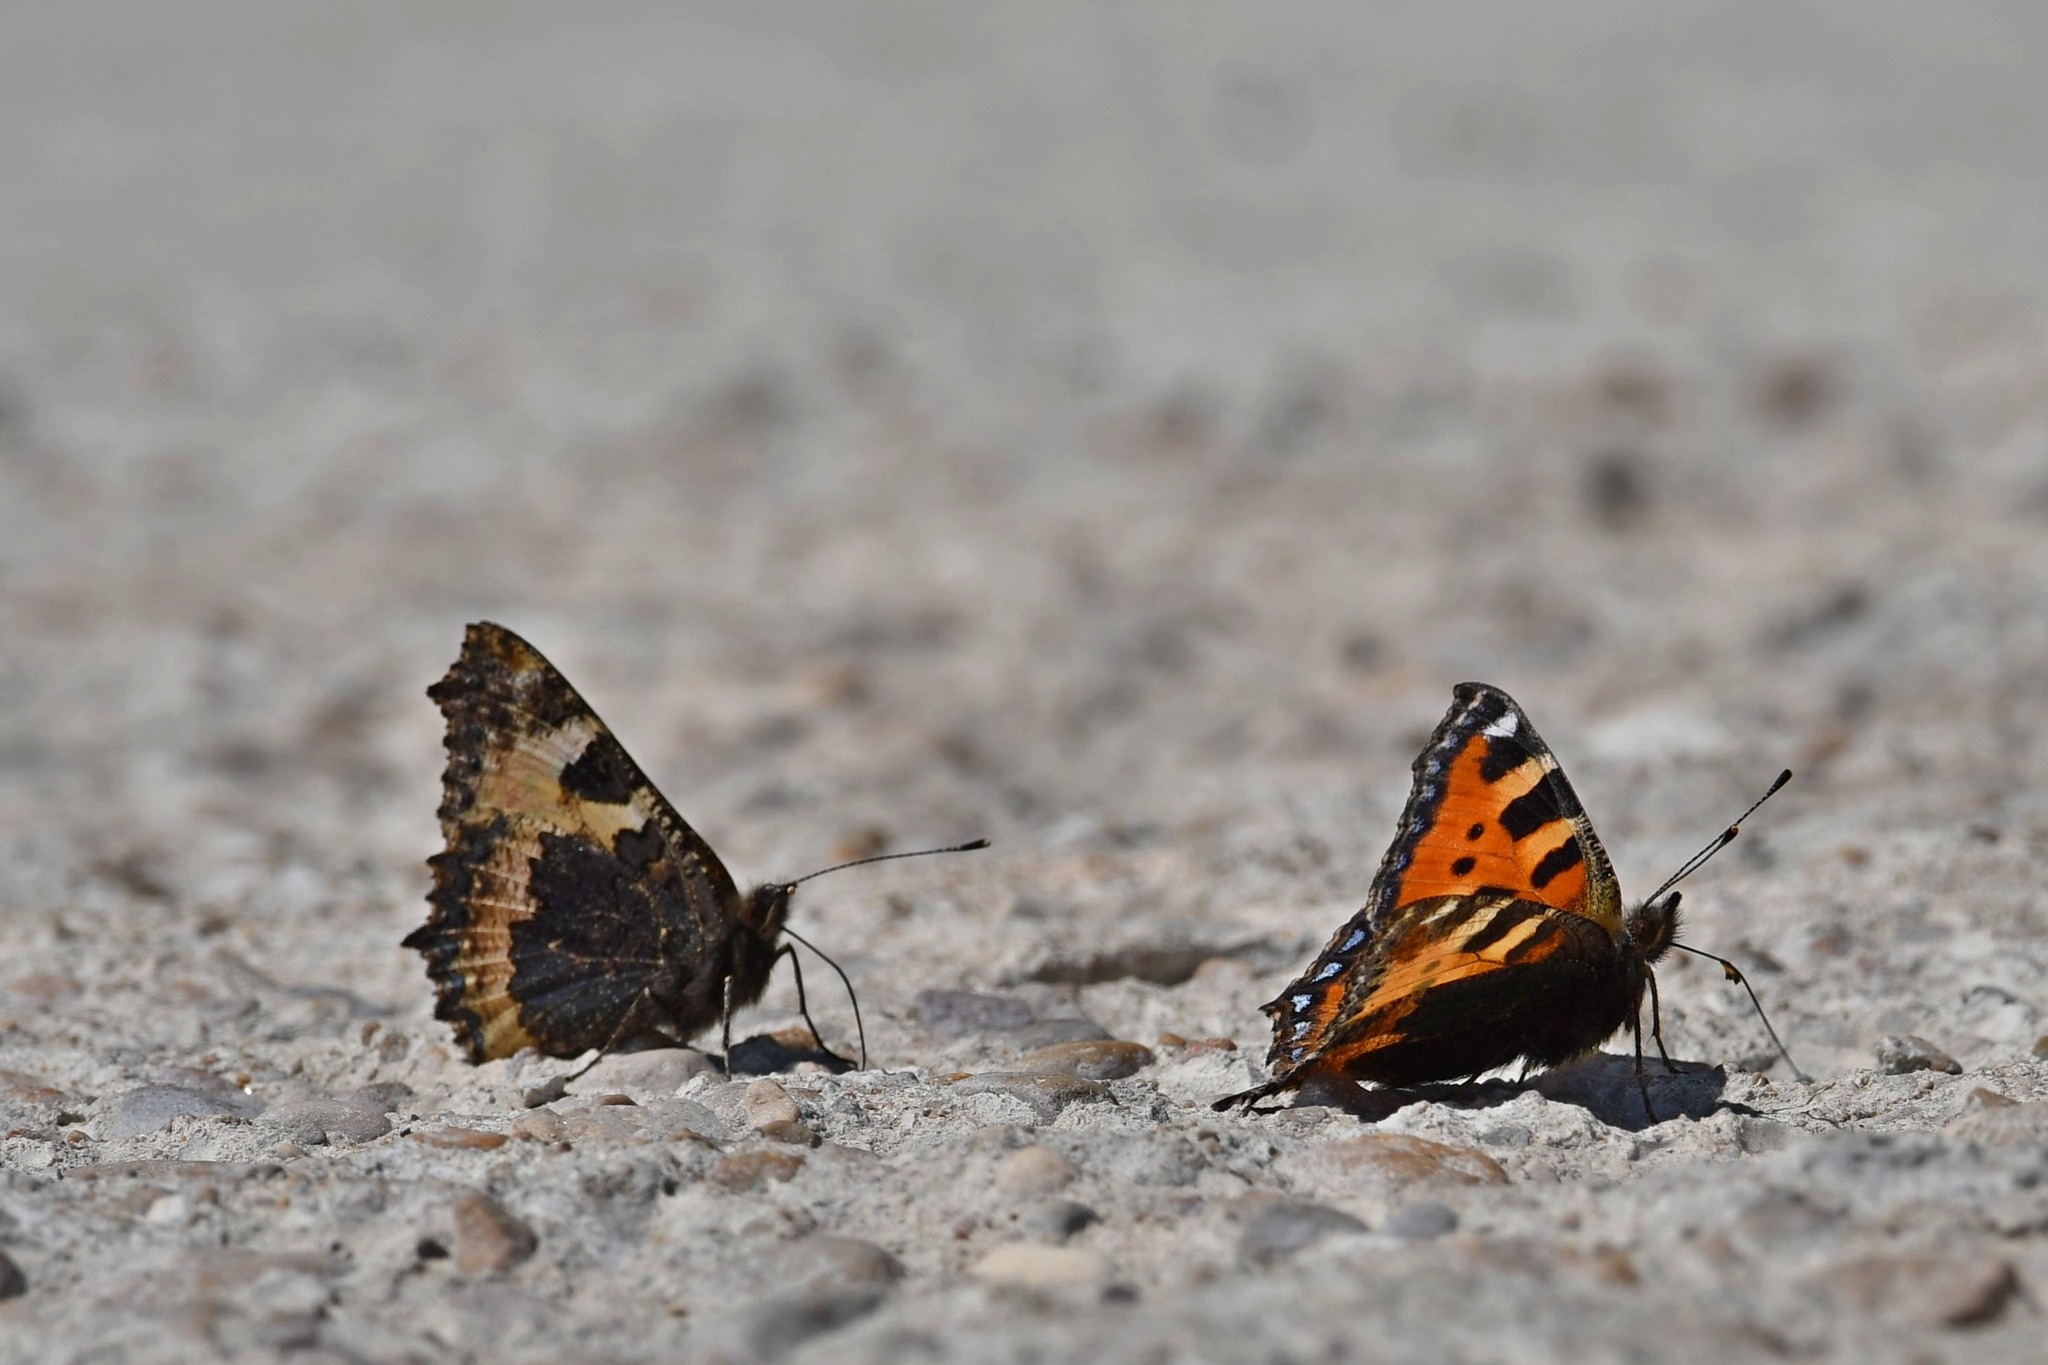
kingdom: Animalia
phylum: Arthropoda
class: Insecta
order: Lepidoptera
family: Nymphalidae
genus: Aglais
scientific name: Aglais urticae
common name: Small tortoiseshell
